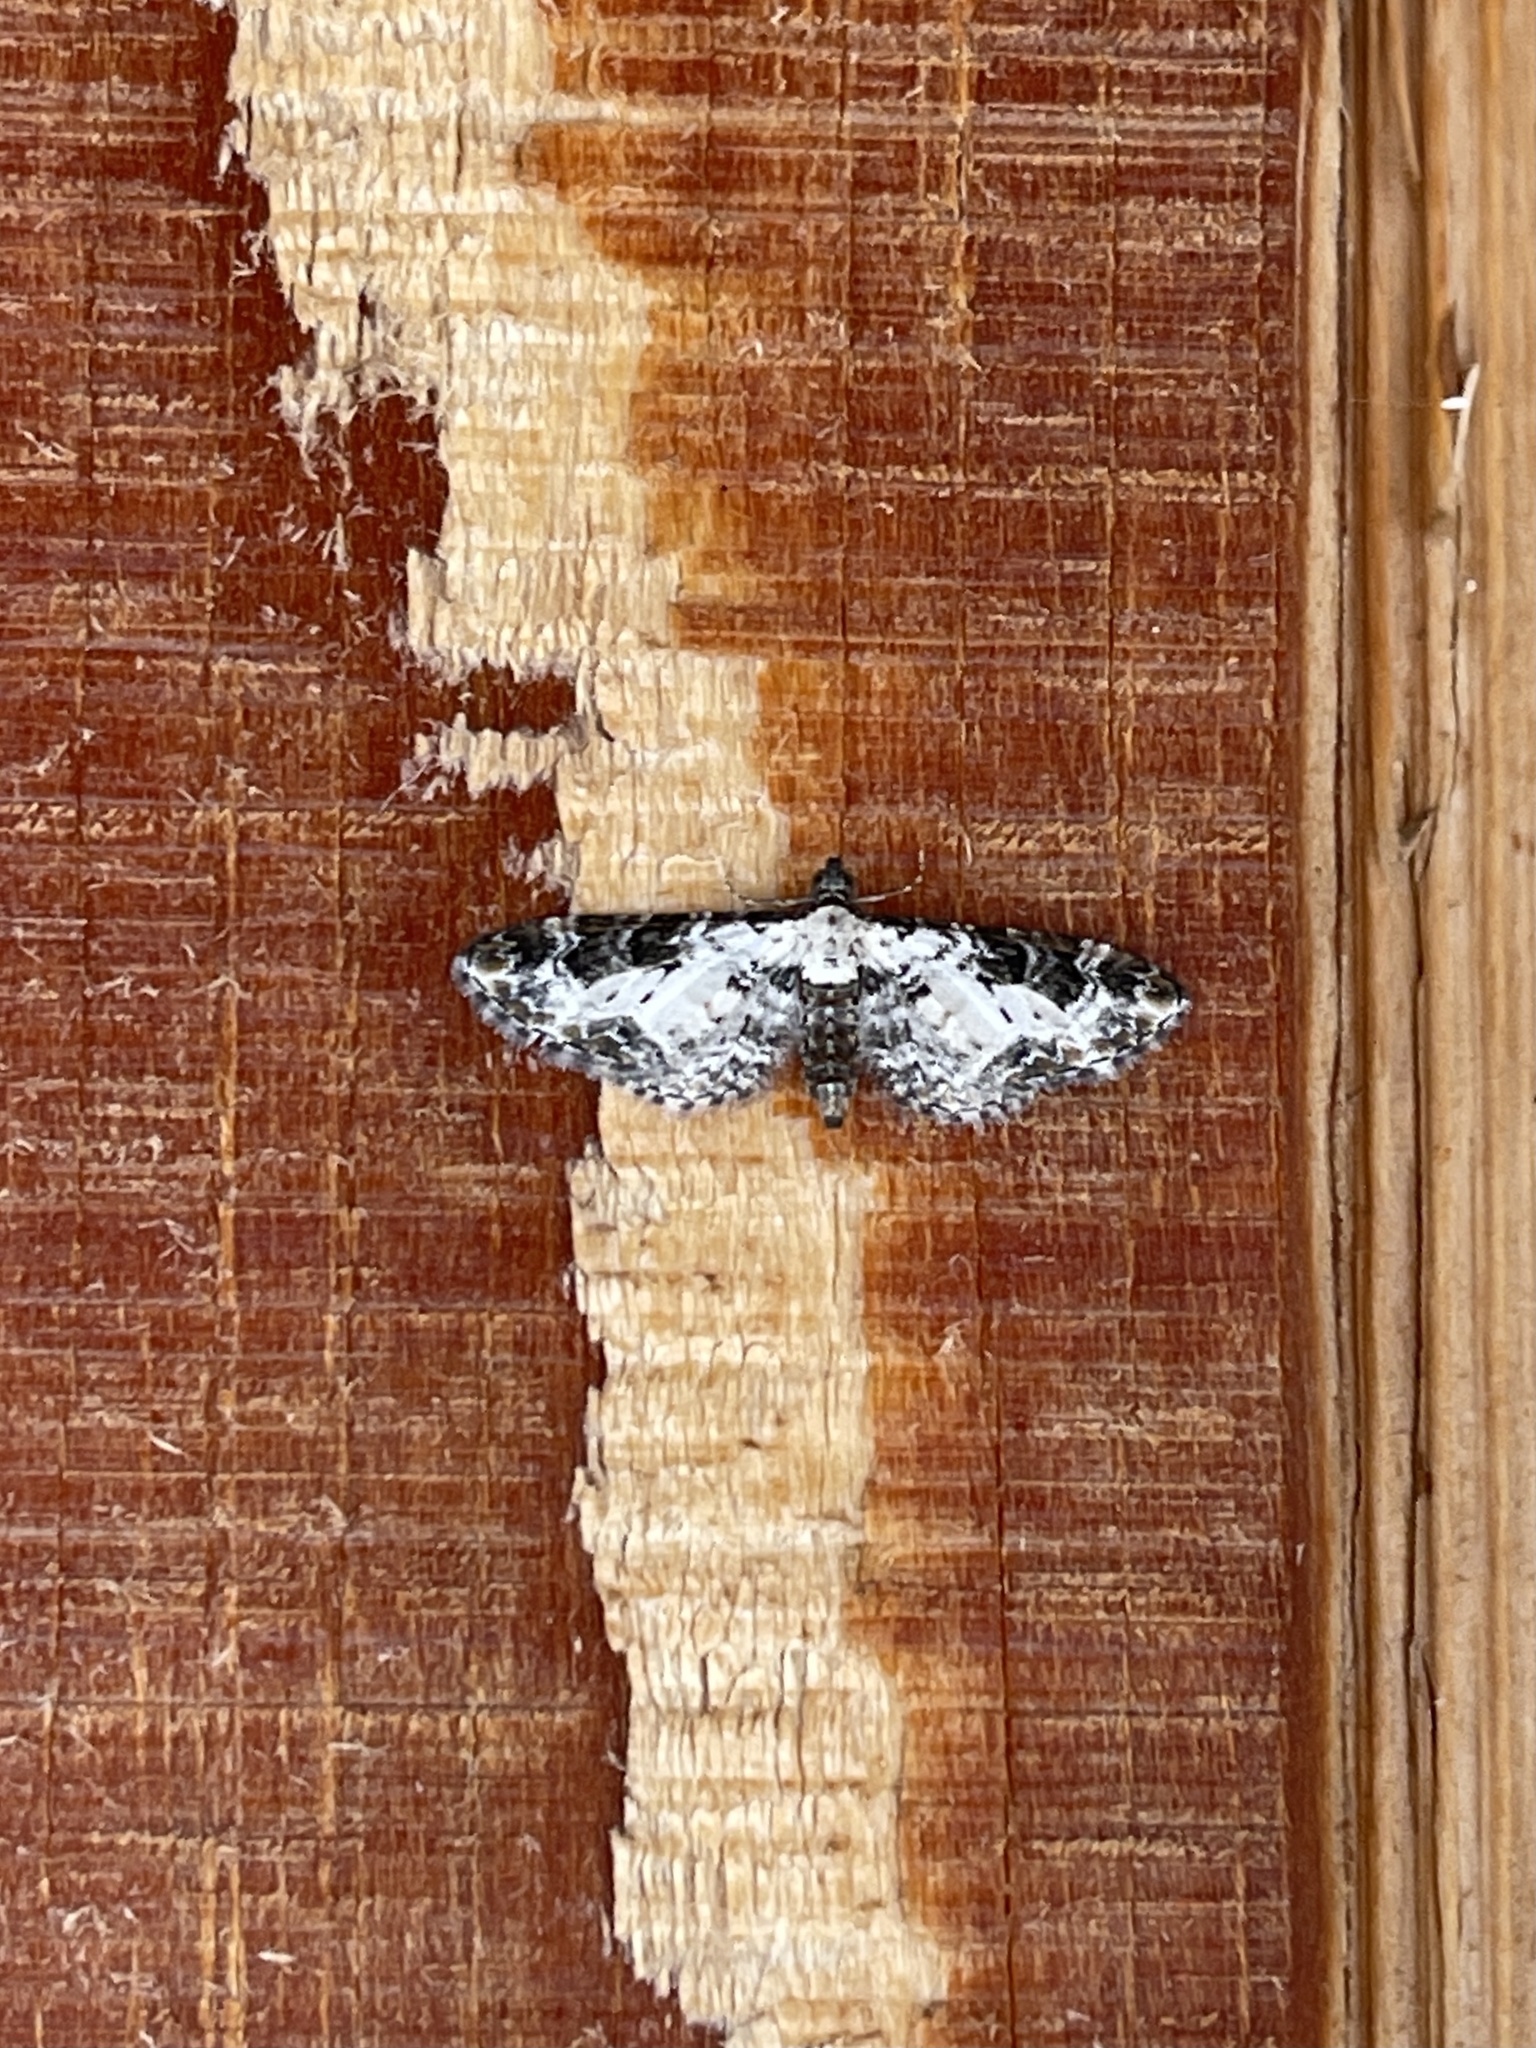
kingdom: Animalia
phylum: Arthropoda
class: Insecta
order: Lepidoptera
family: Geometridae
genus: Prorella
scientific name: Prorella gypsata
